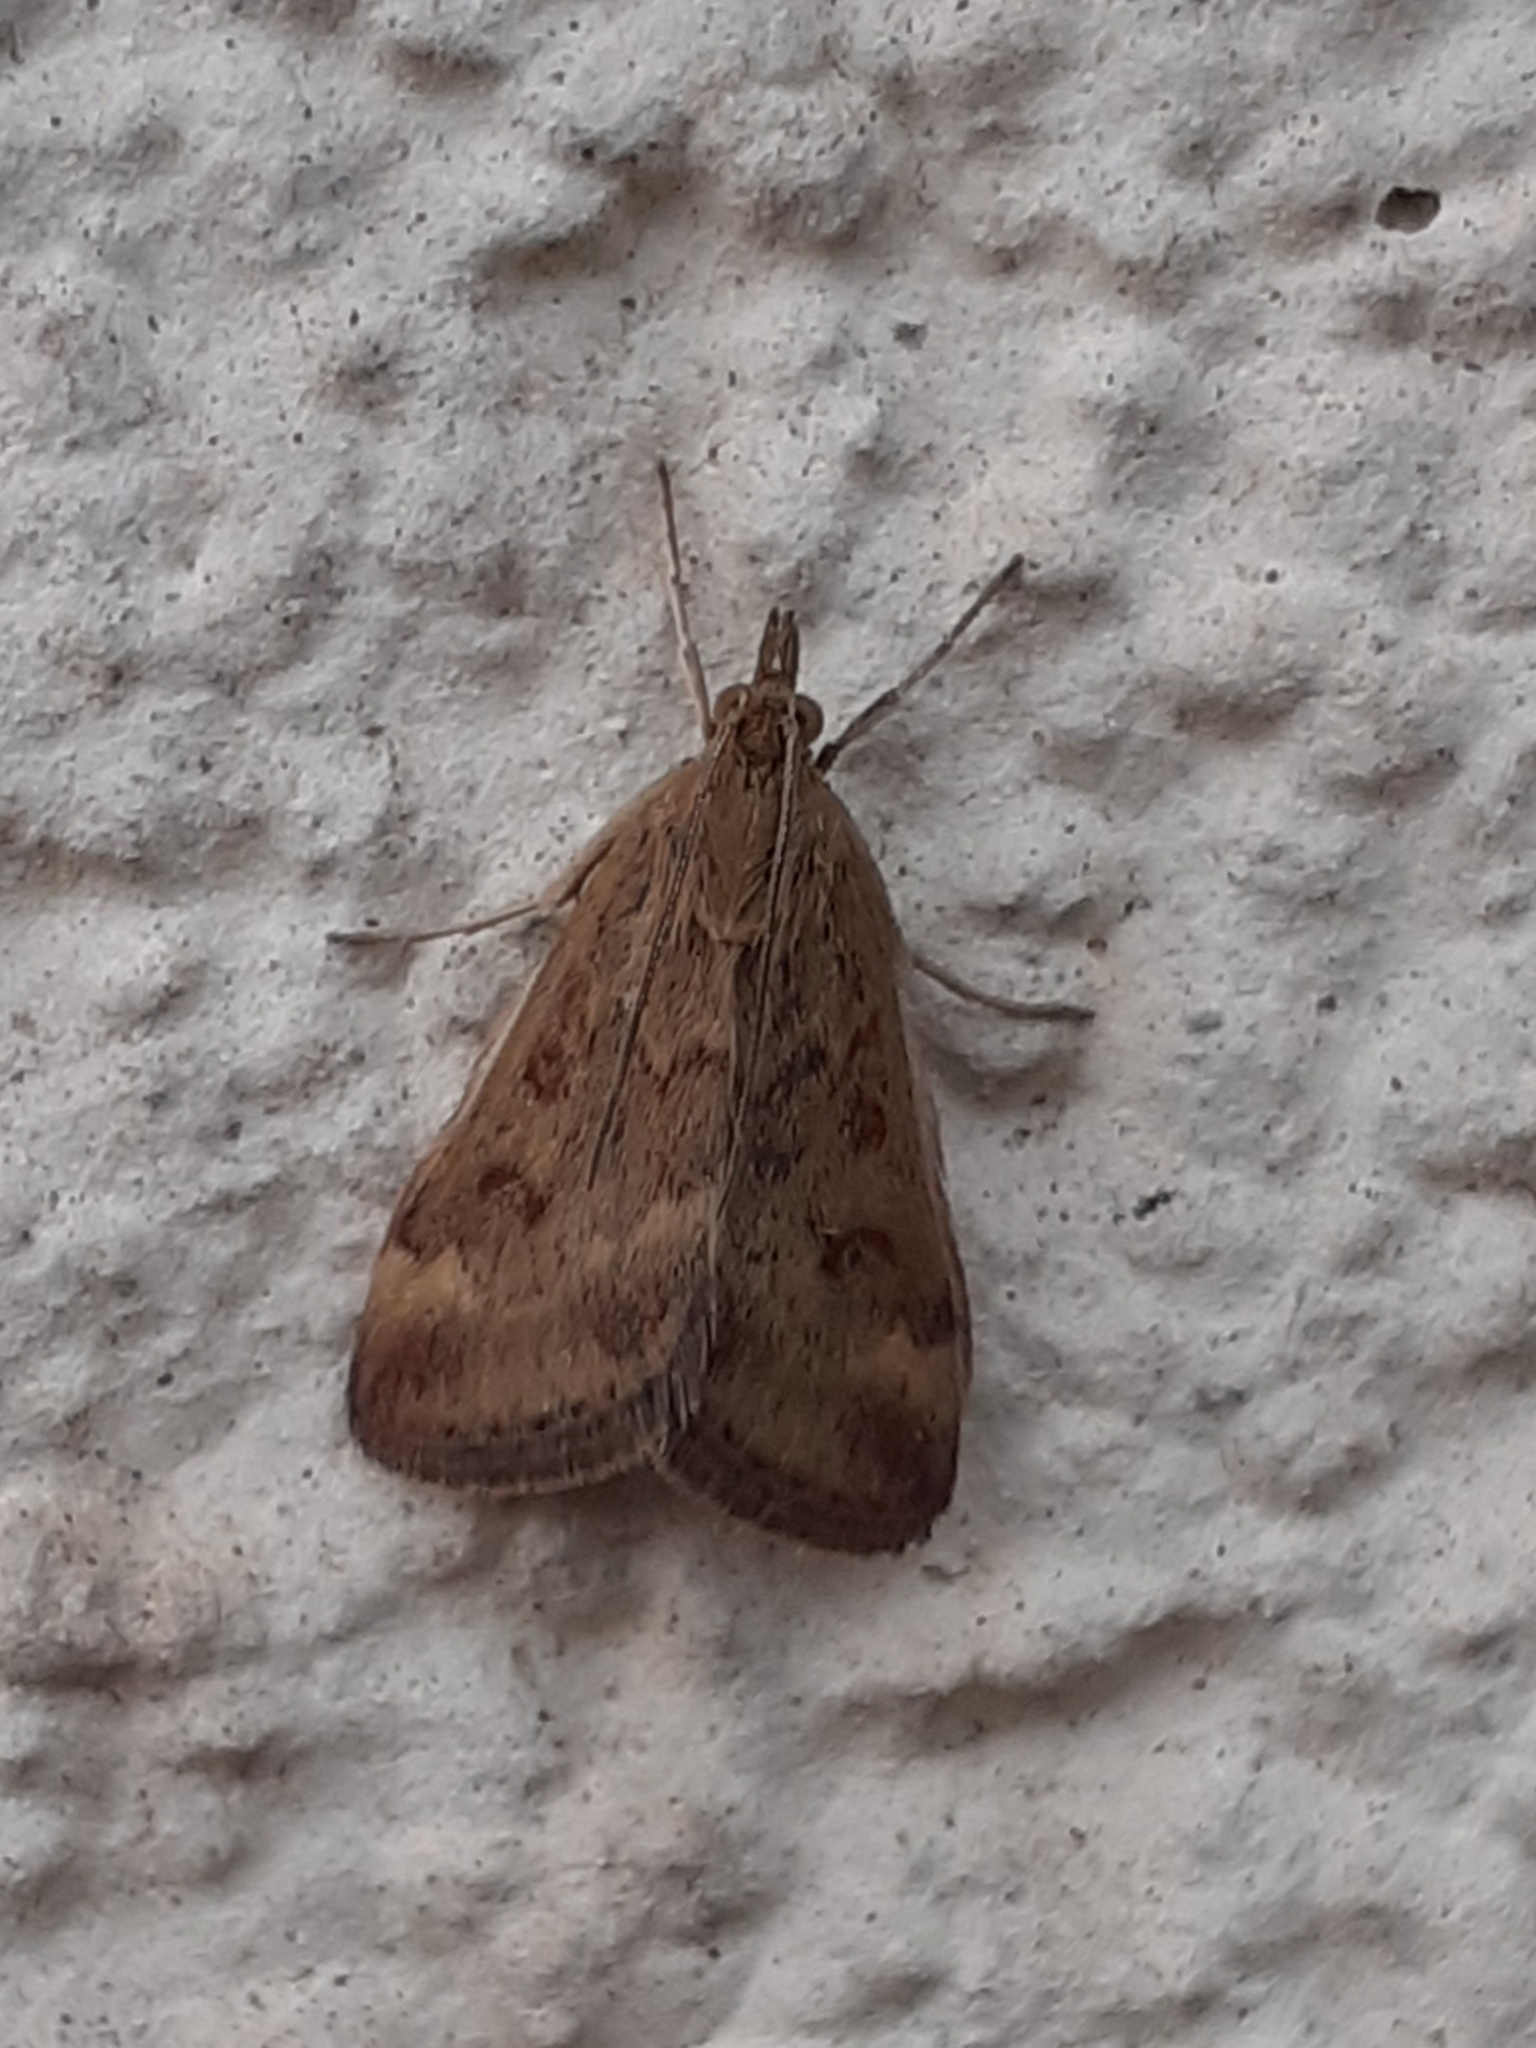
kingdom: Animalia
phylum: Arthropoda
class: Insecta
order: Lepidoptera
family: Crambidae
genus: Pyrausta
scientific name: Pyrausta despicata
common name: Straw-barred pearl
